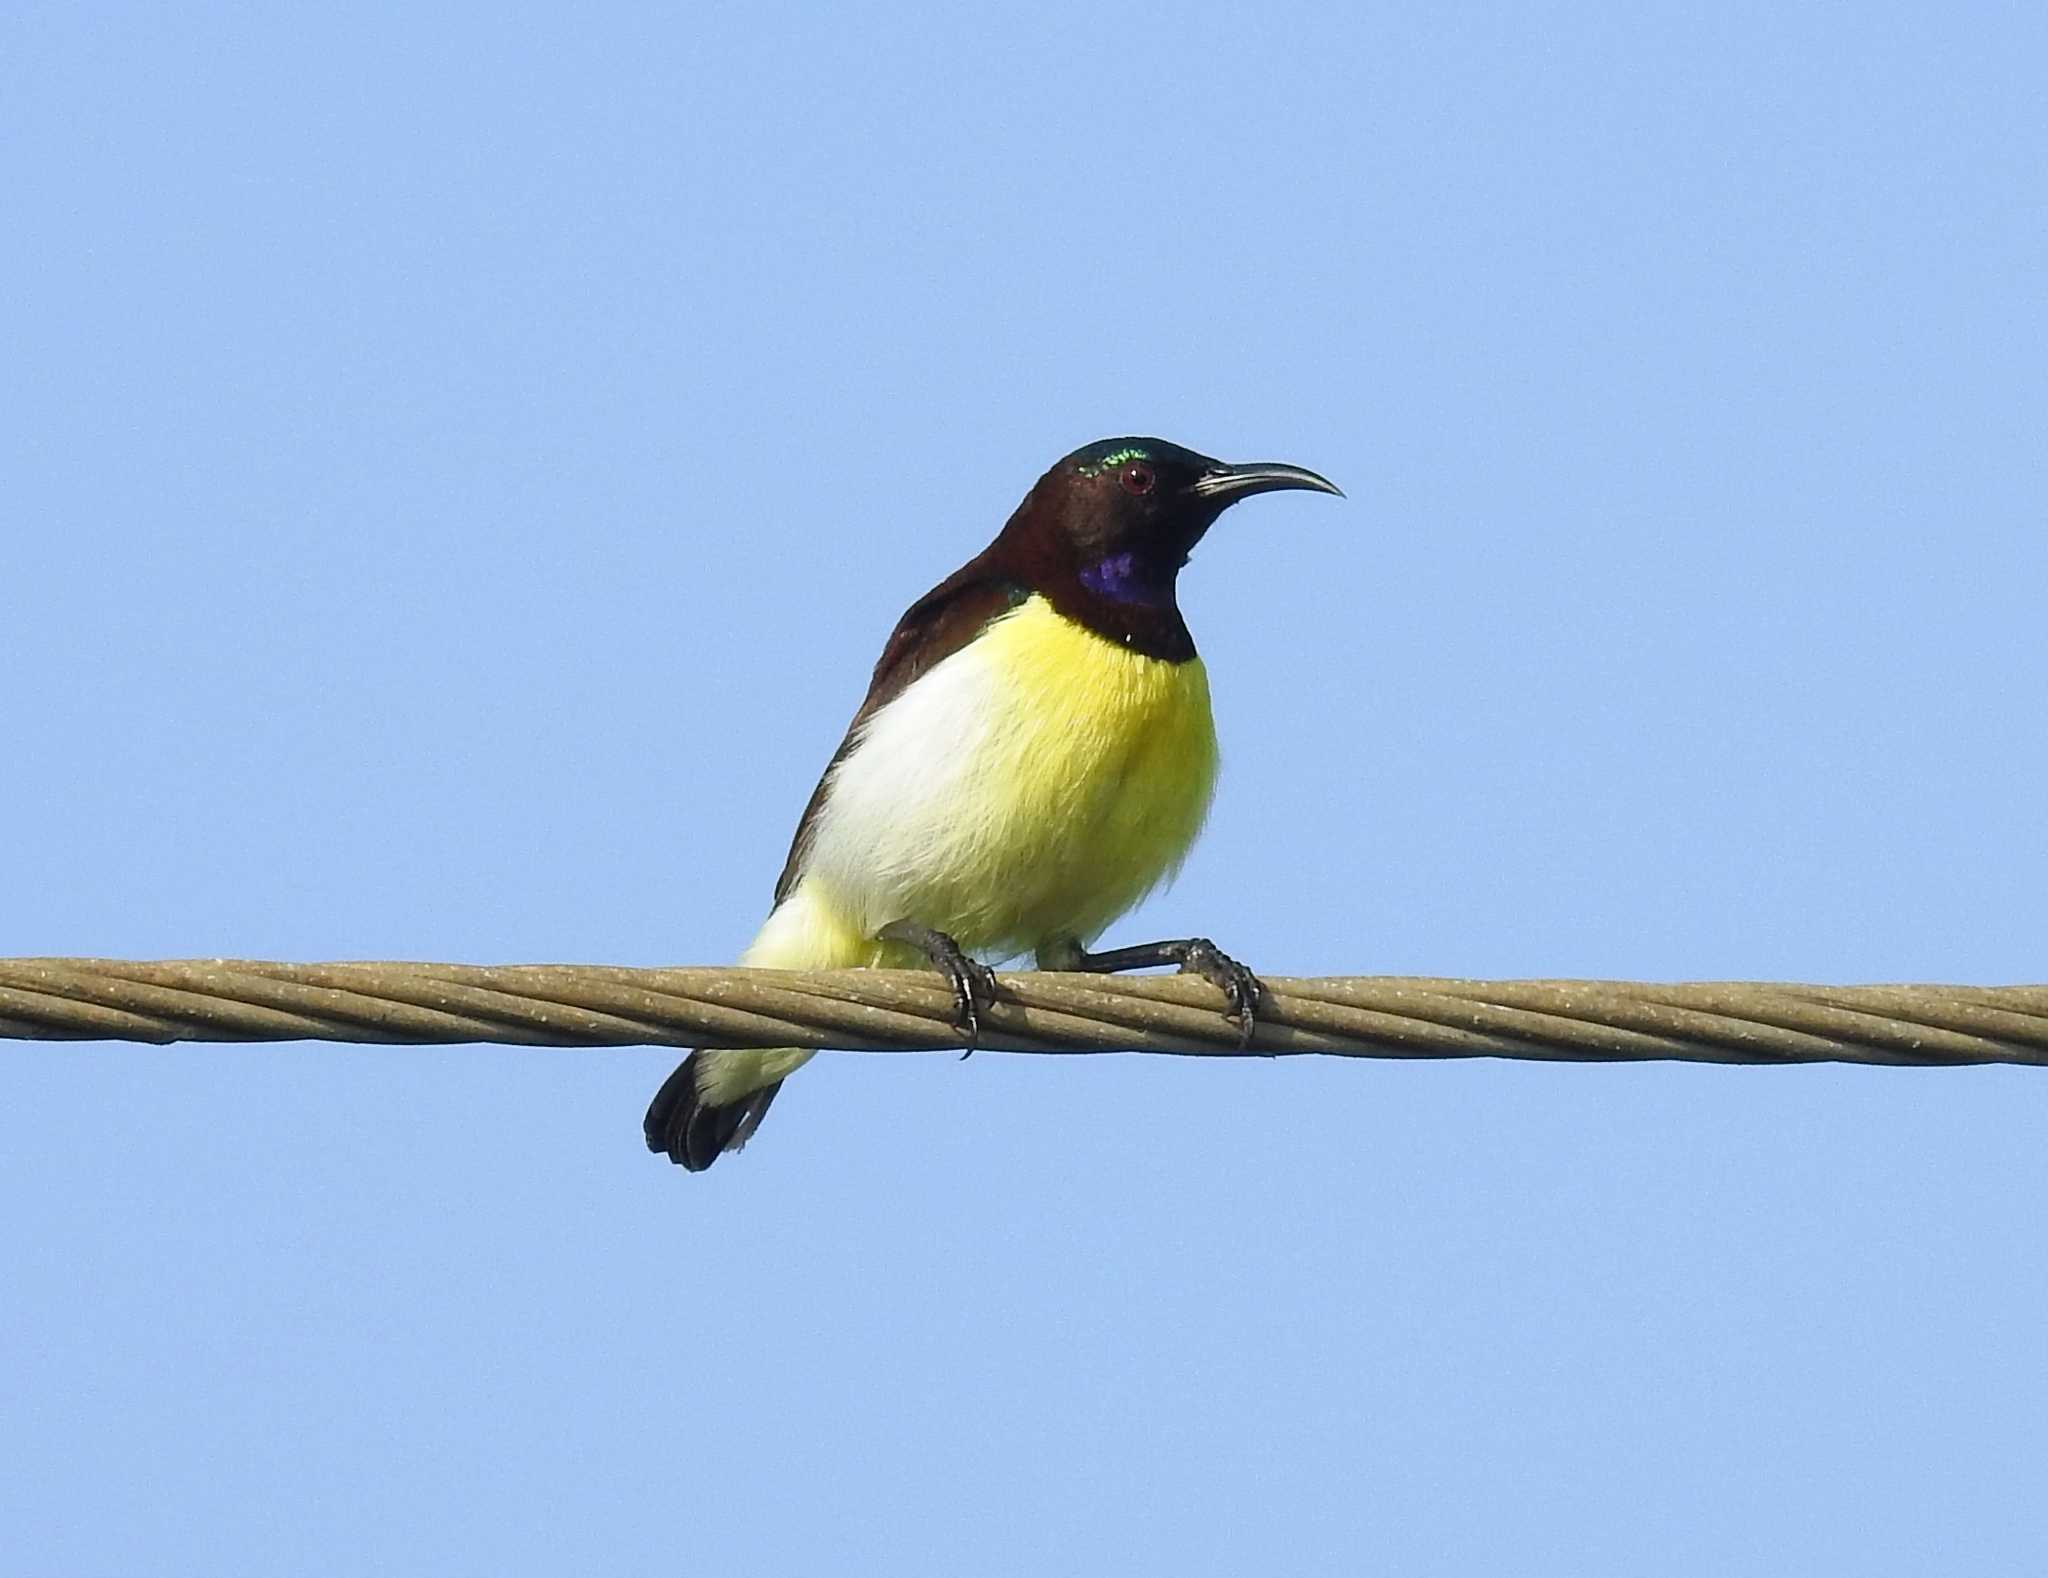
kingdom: Animalia
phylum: Chordata
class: Aves
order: Passeriformes
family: Nectariniidae
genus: Leptocoma
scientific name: Leptocoma zeylonica
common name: Purple-rumped sunbird
